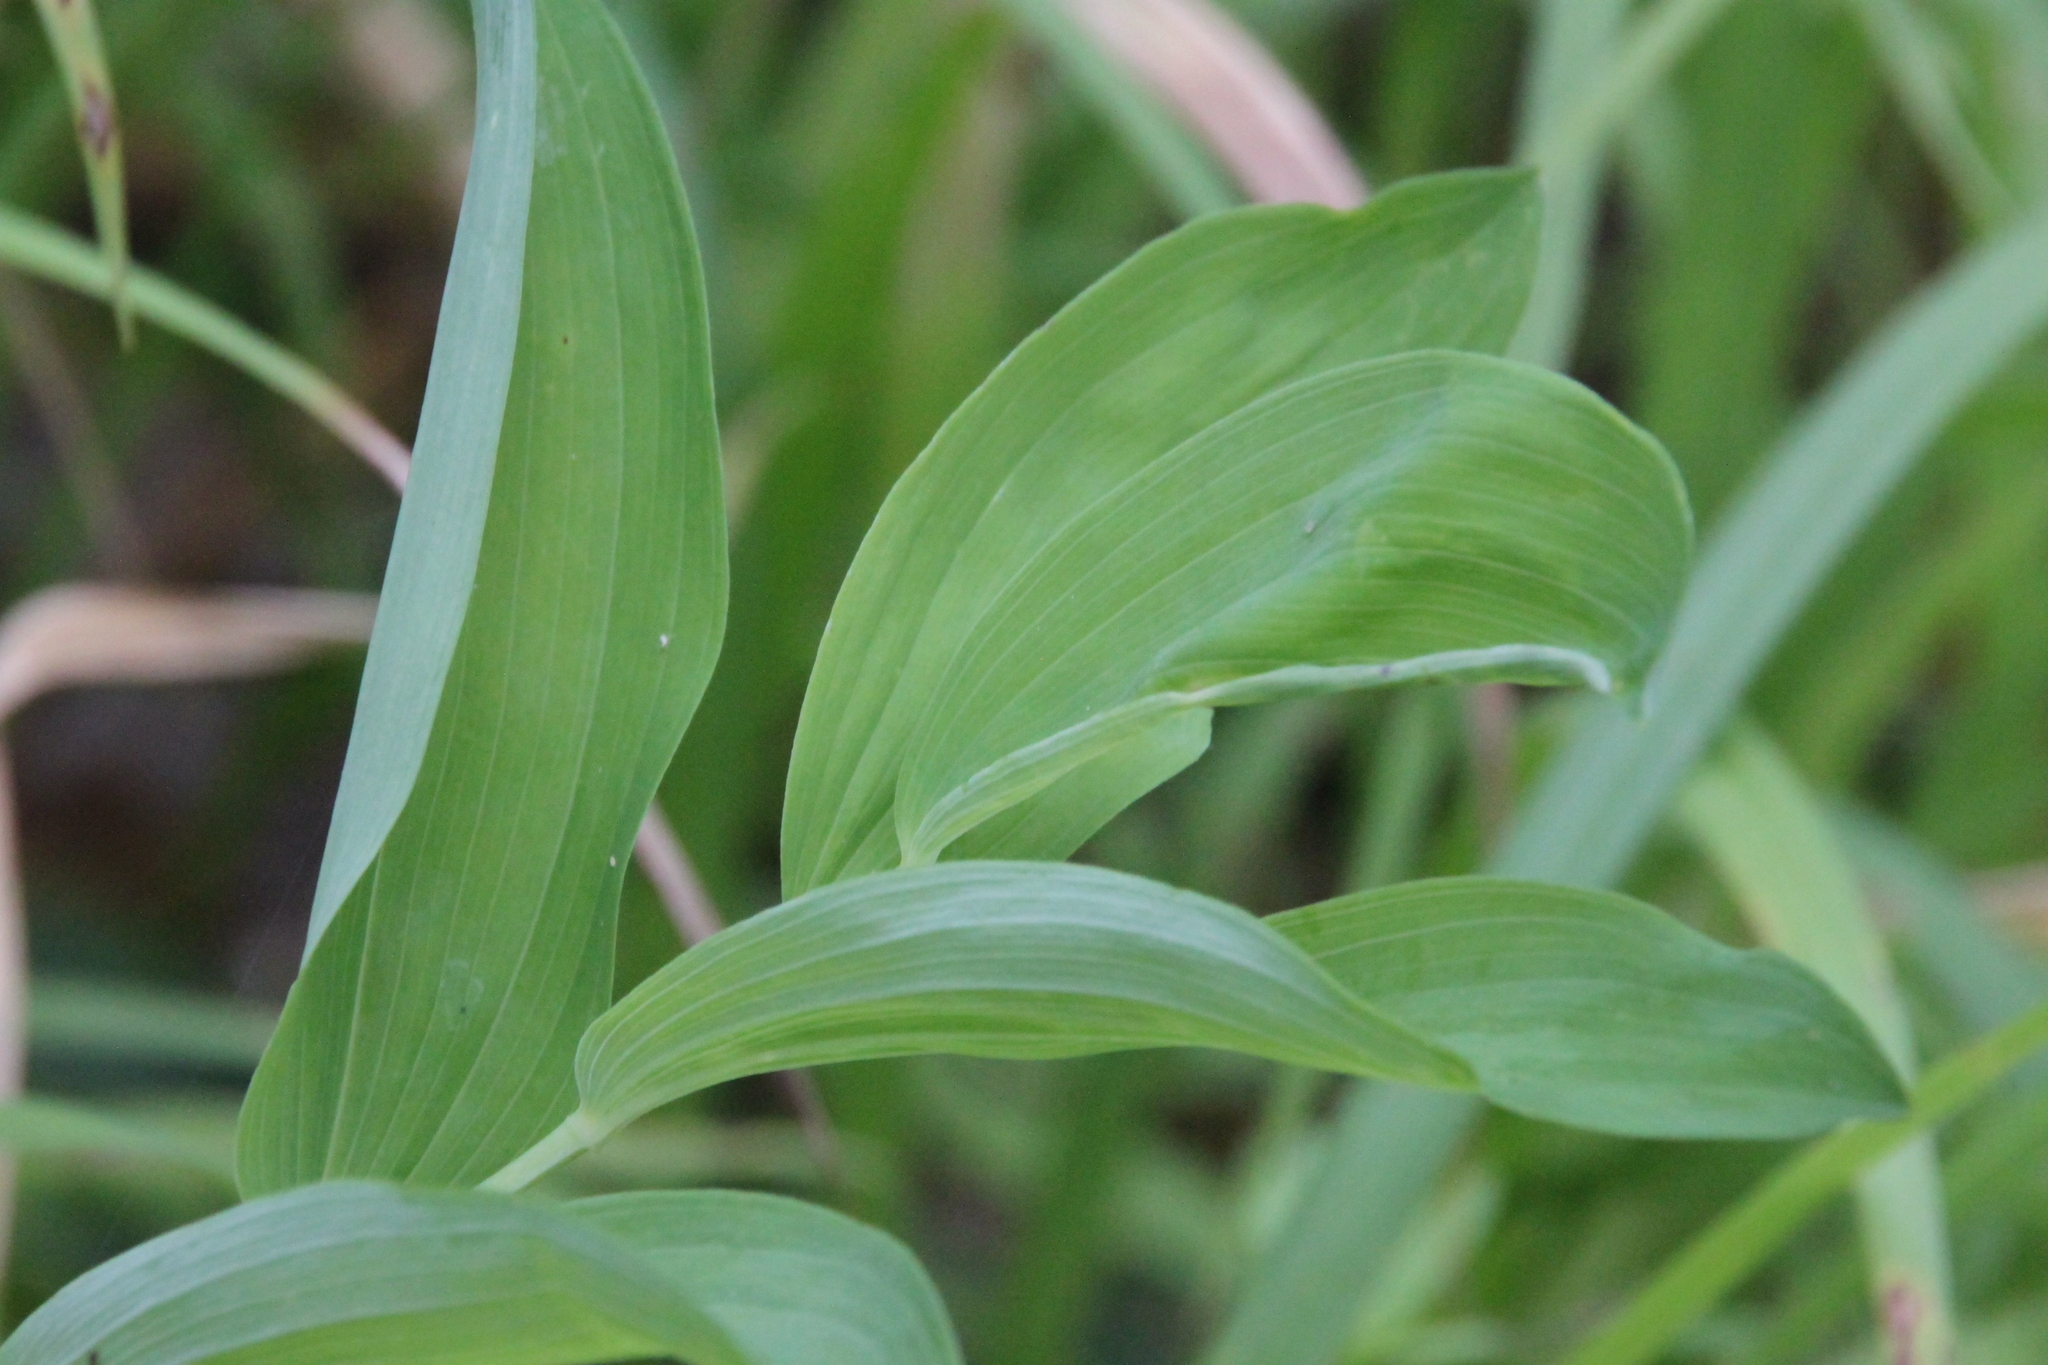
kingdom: Plantae
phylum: Tracheophyta
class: Liliopsida
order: Asparagales
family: Asparagaceae
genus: Polygonatum
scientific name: Polygonatum odoratum
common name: Angular solomon's-seal
